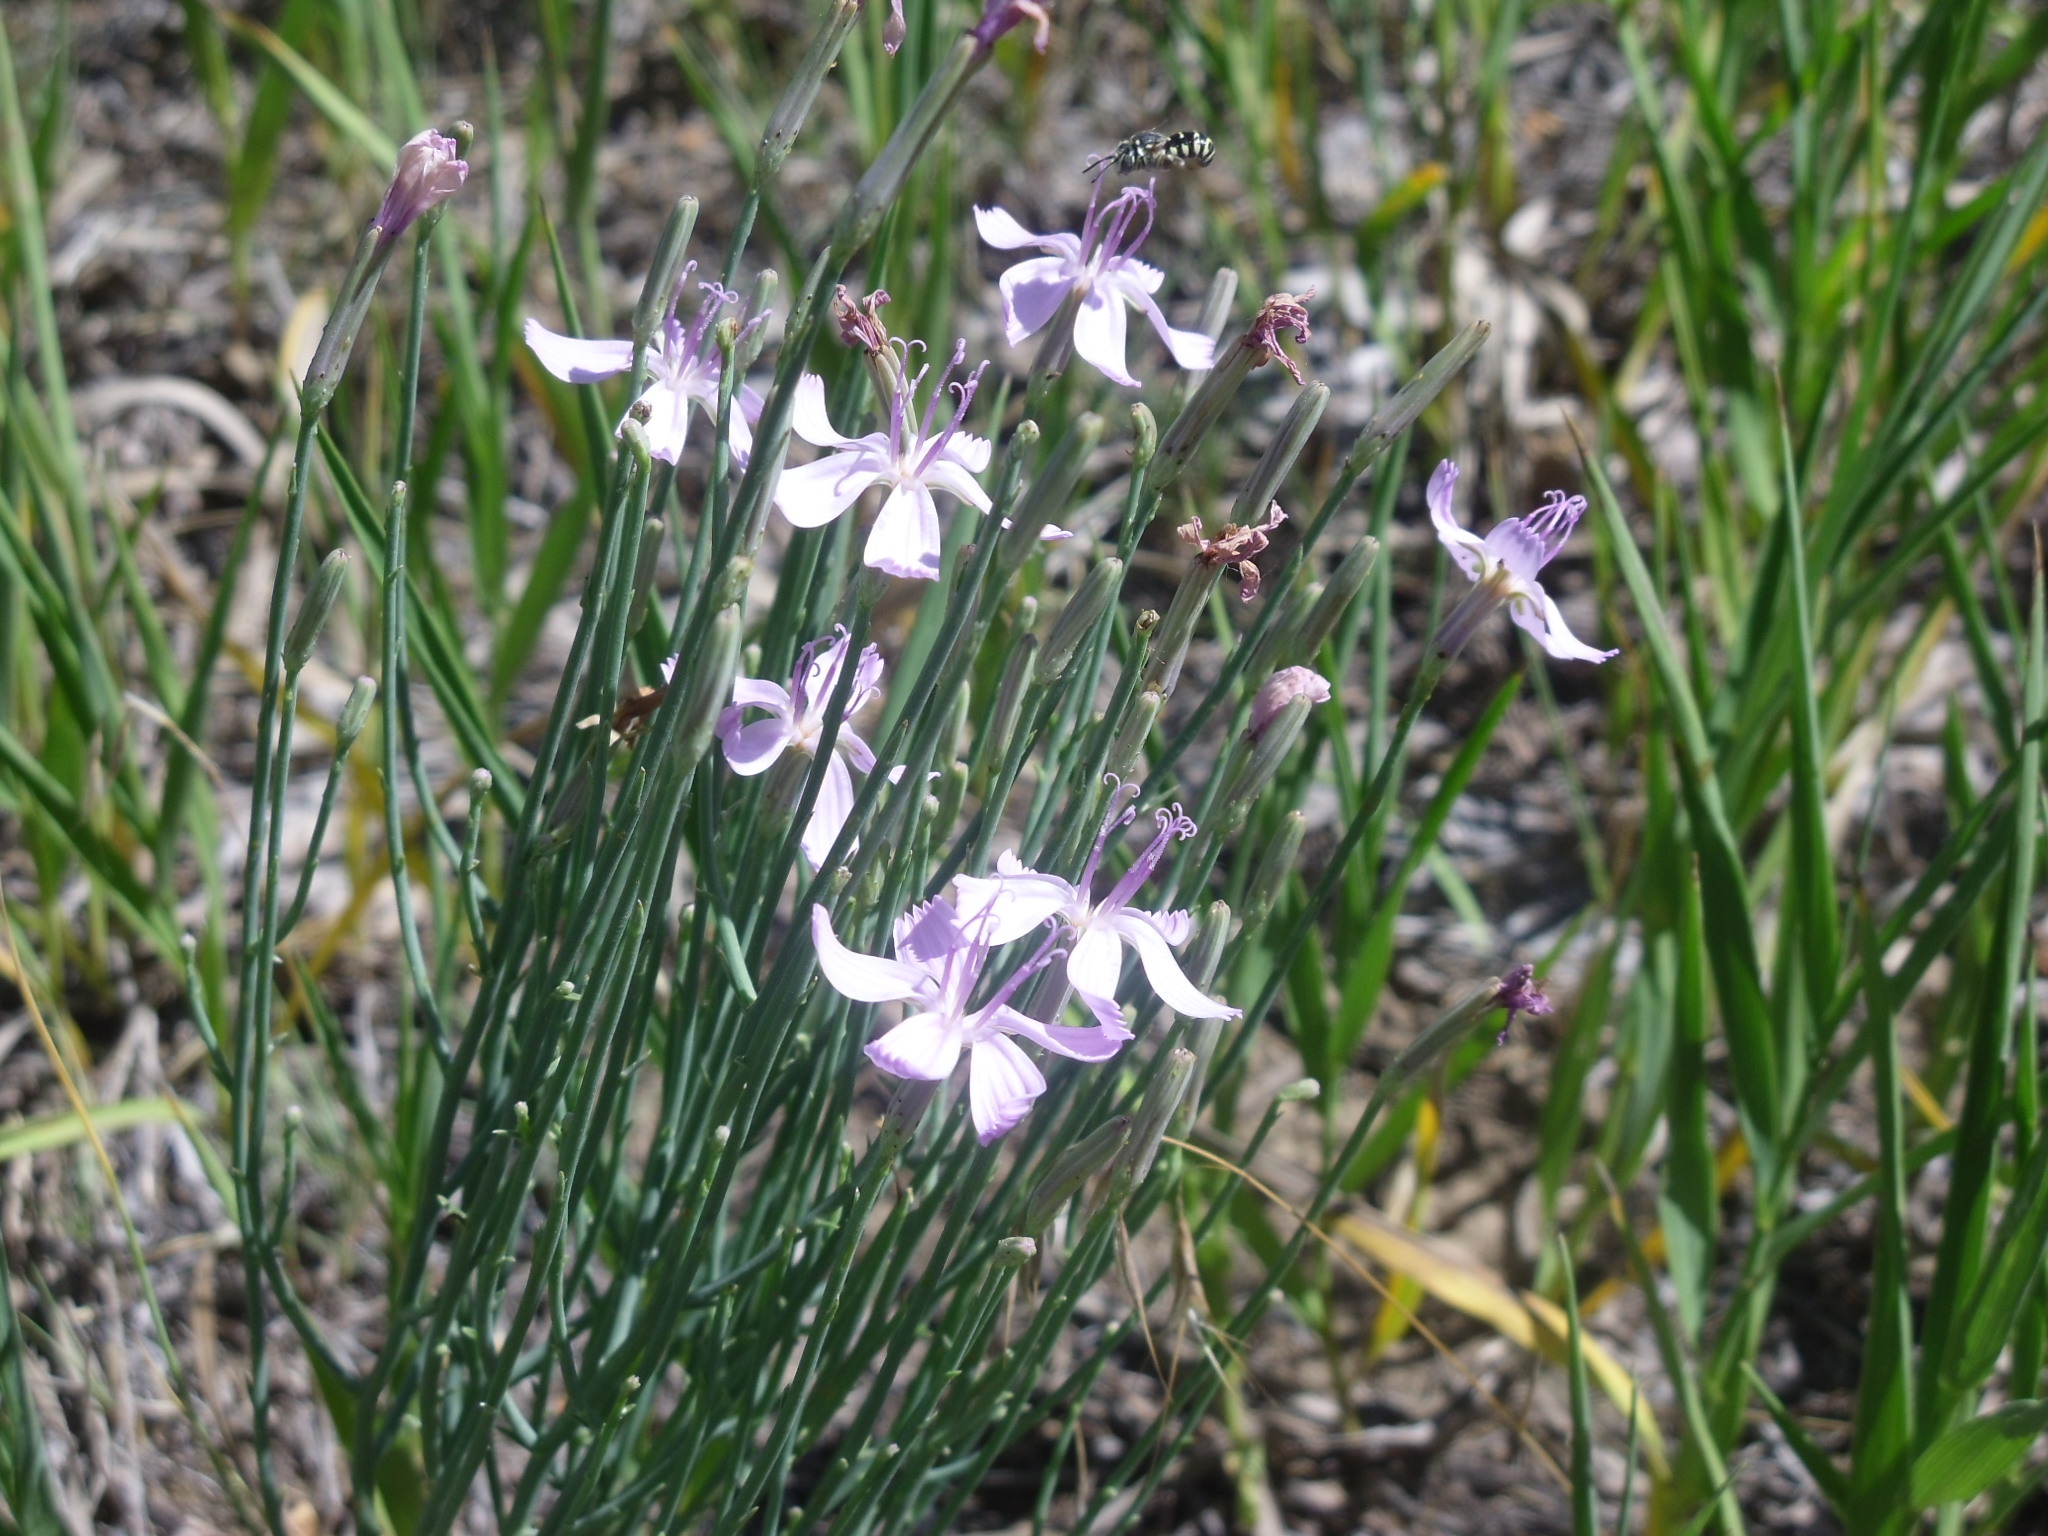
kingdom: Plantae
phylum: Tracheophyta
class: Magnoliopsida
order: Asterales
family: Asteraceae
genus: Lygodesmia
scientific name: Lygodesmia juncea
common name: Common skeletonweed
